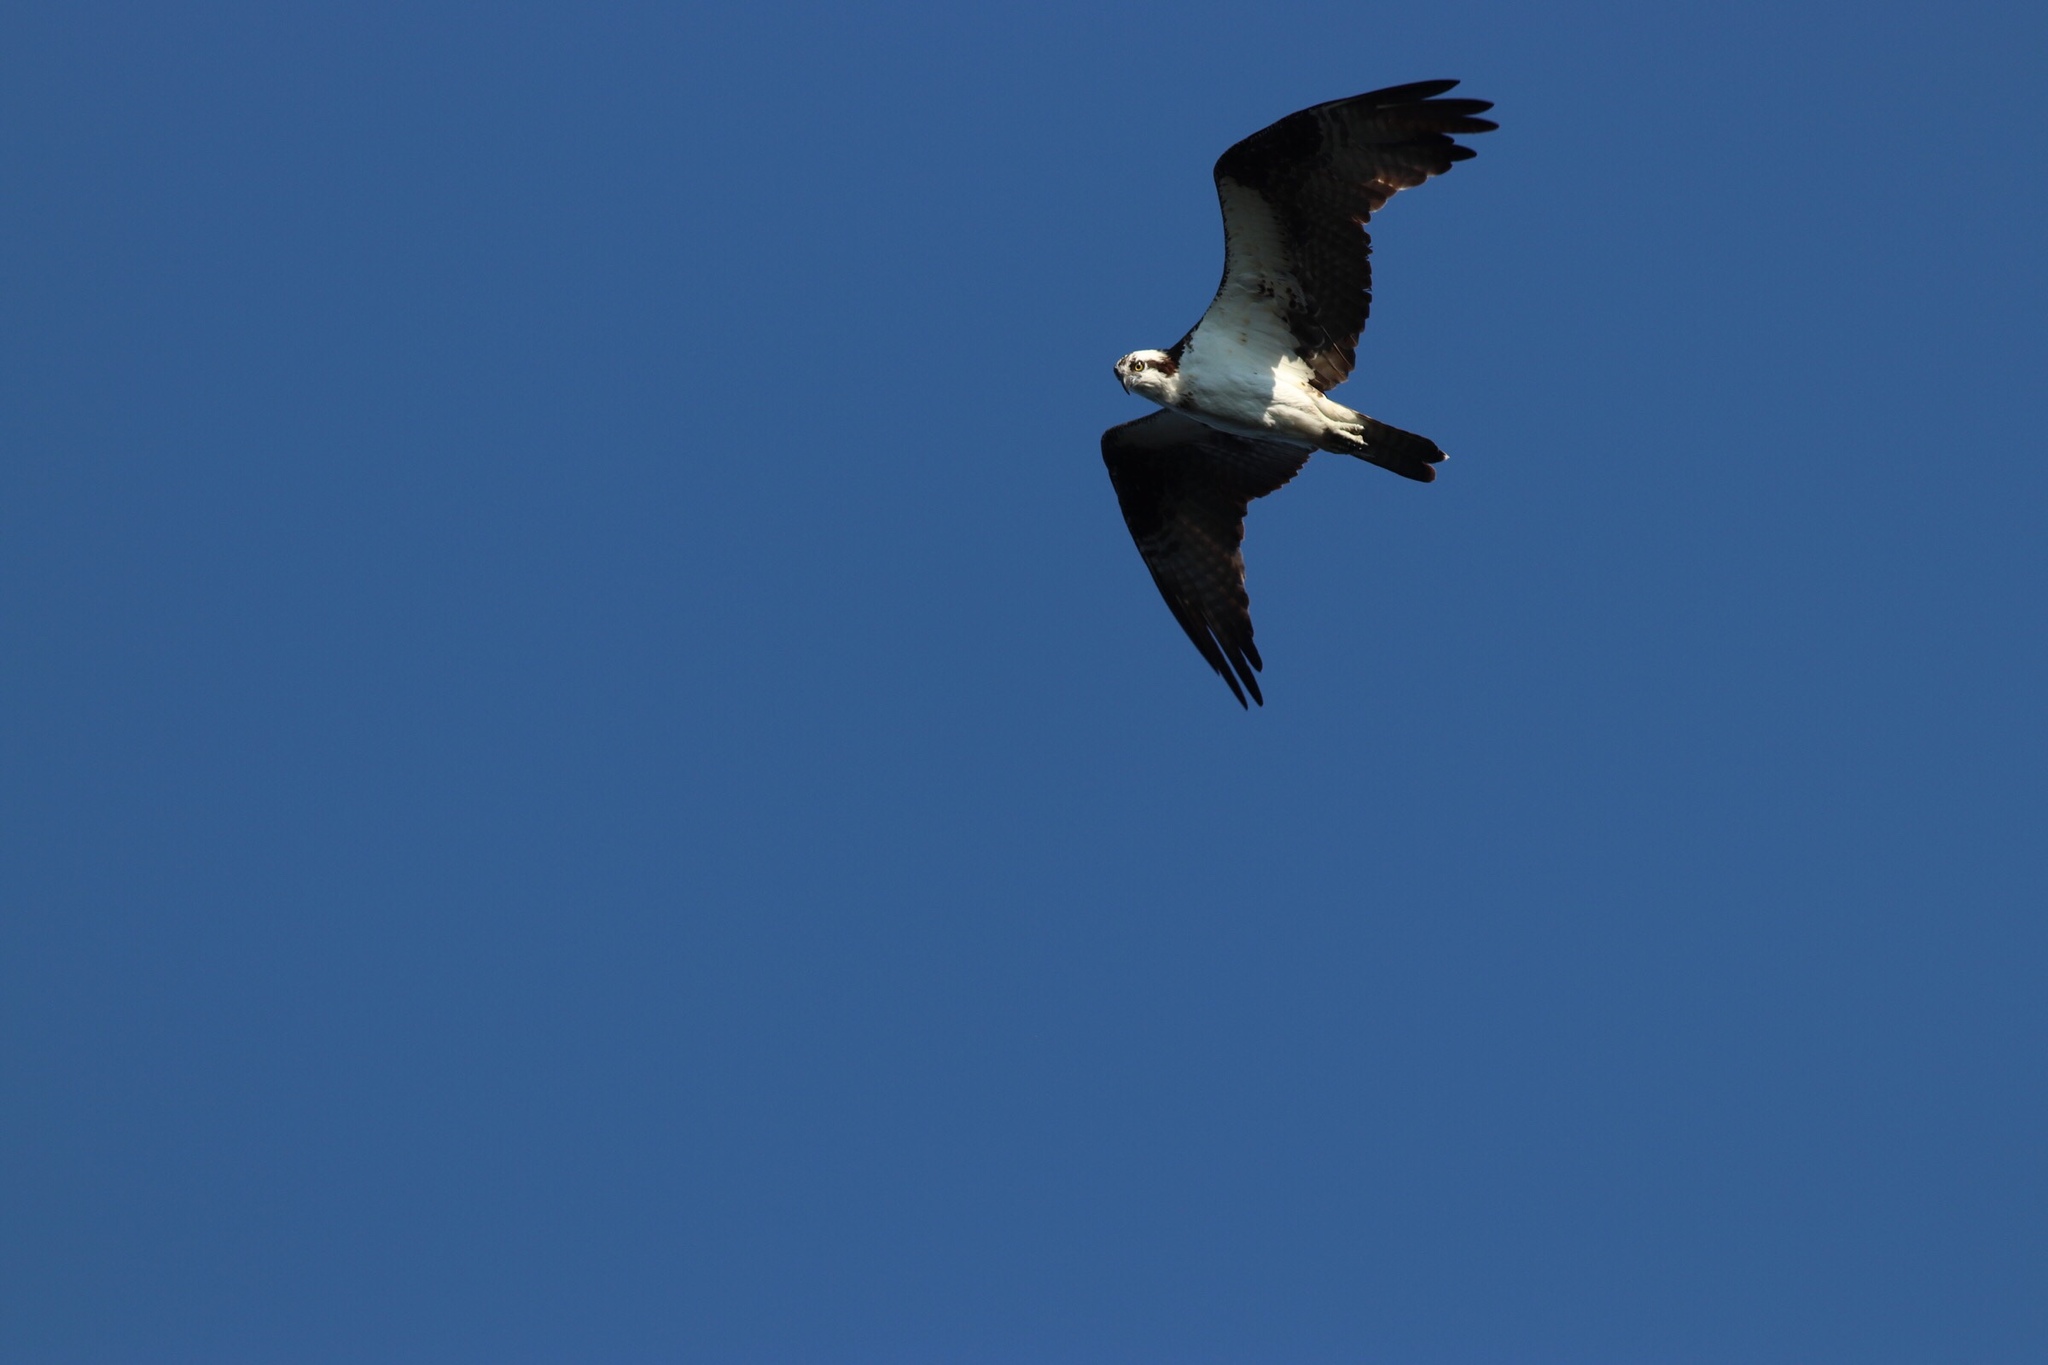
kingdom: Animalia
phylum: Chordata
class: Aves
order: Accipitriformes
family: Pandionidae
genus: Pandion
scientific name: Pandion haliaetus
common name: Osprey
